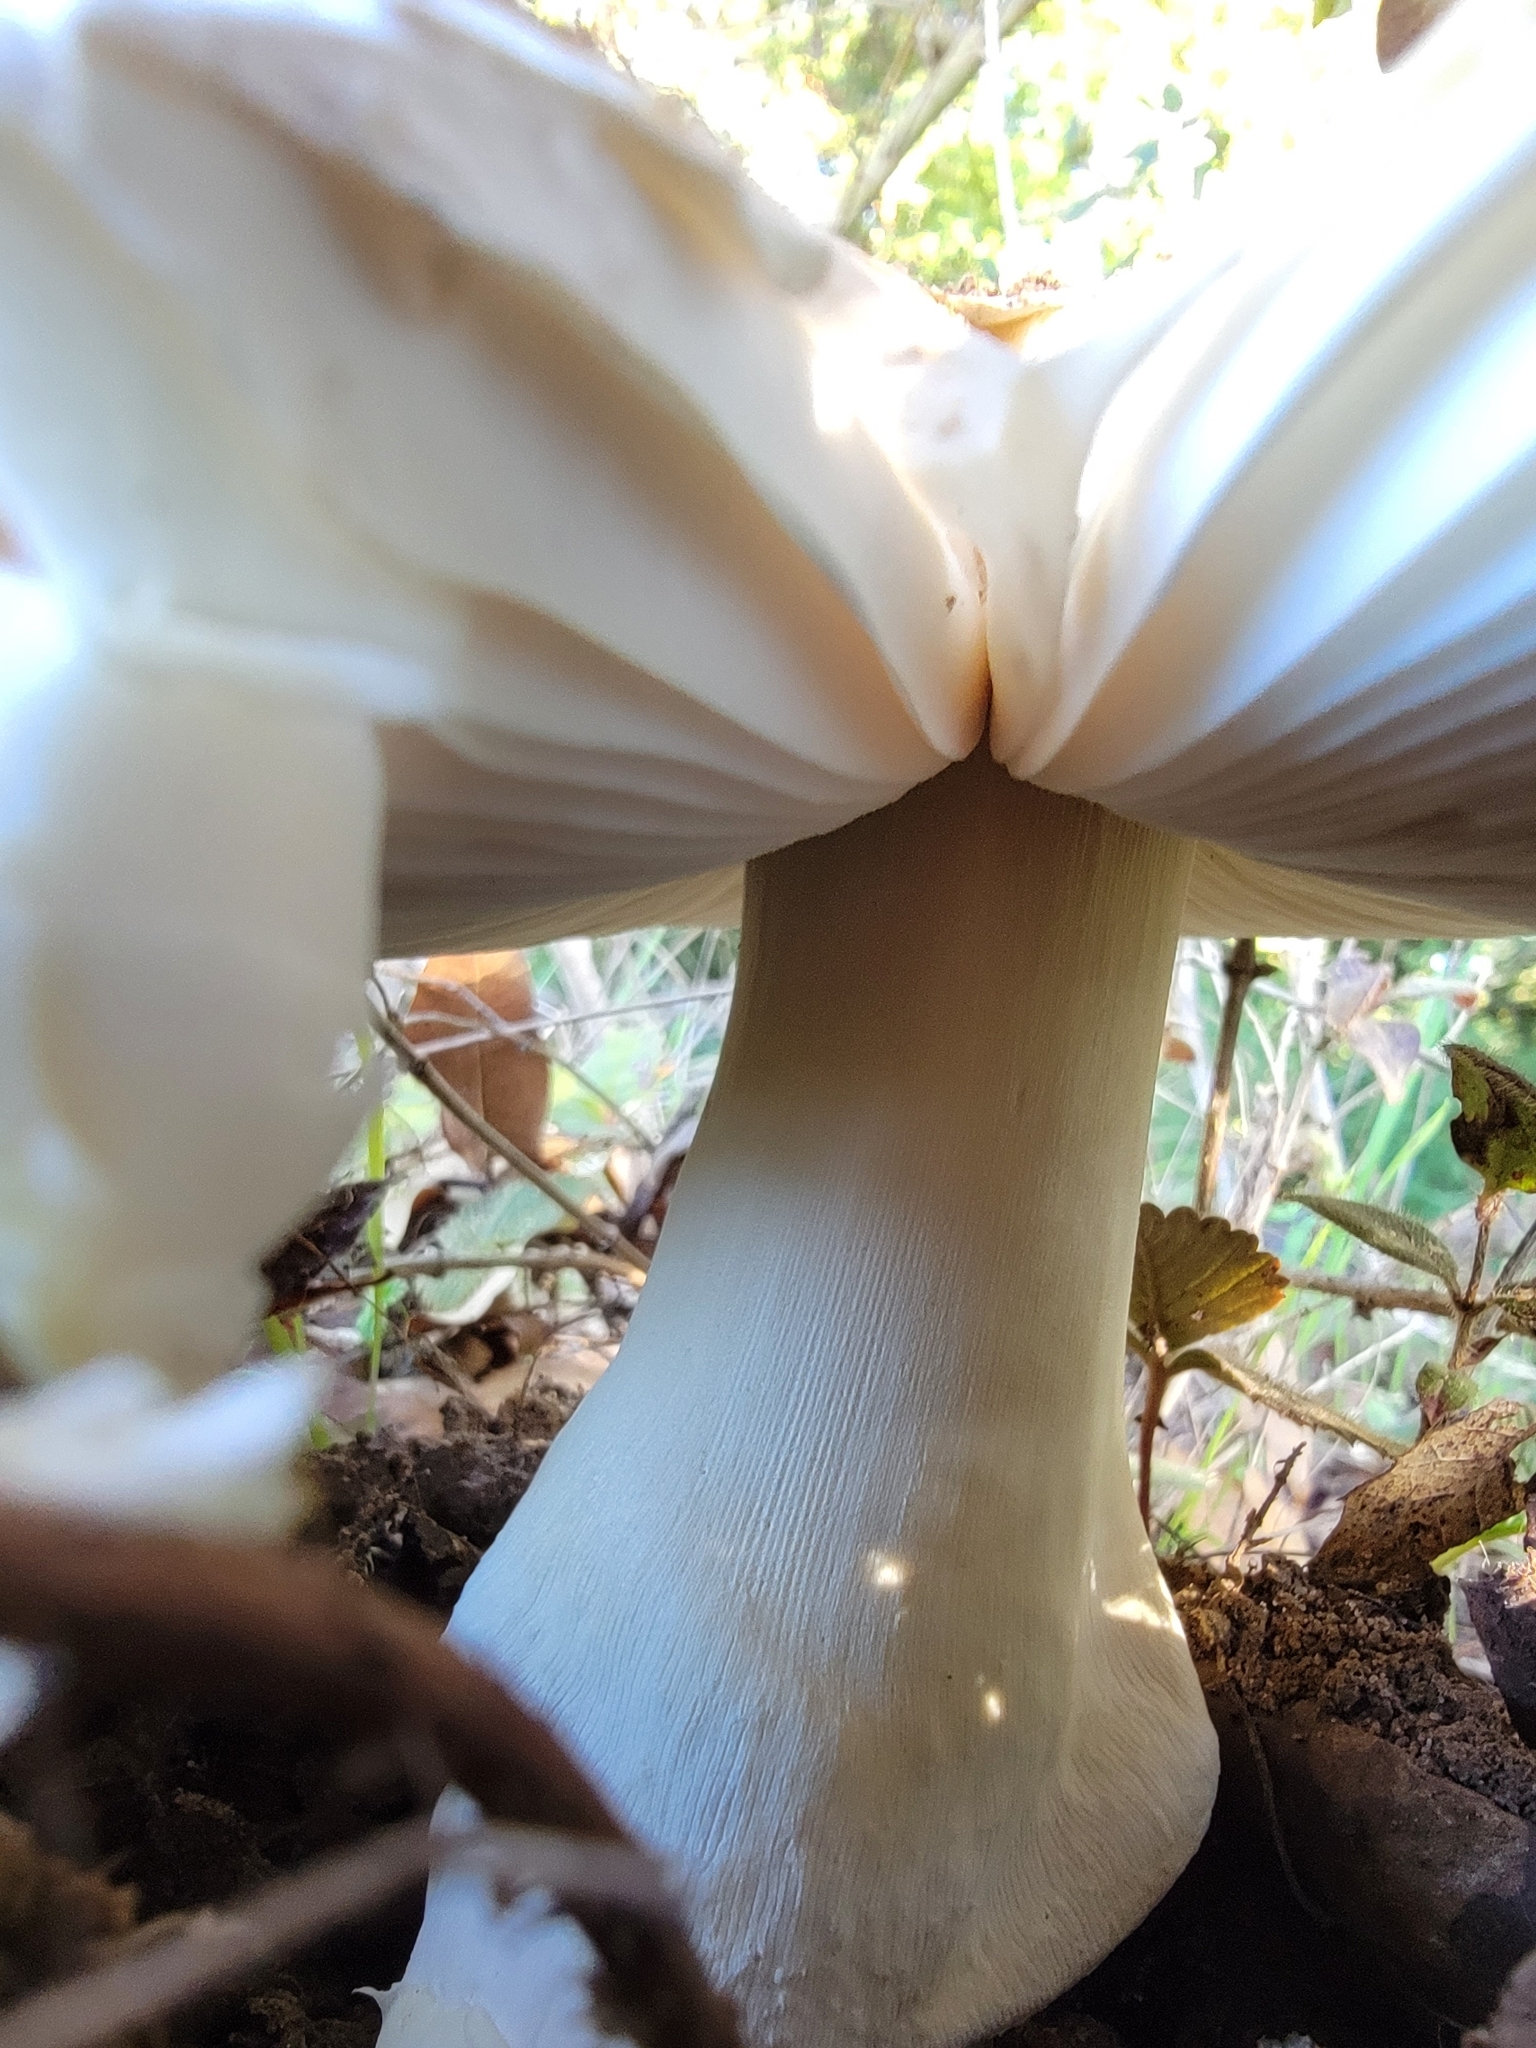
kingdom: Fungi
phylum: Basidiomycota
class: Agaricomycetes
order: Agaricales
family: Amanitaceae
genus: Amanita
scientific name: Amanita calyptroderma
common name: Coccora
